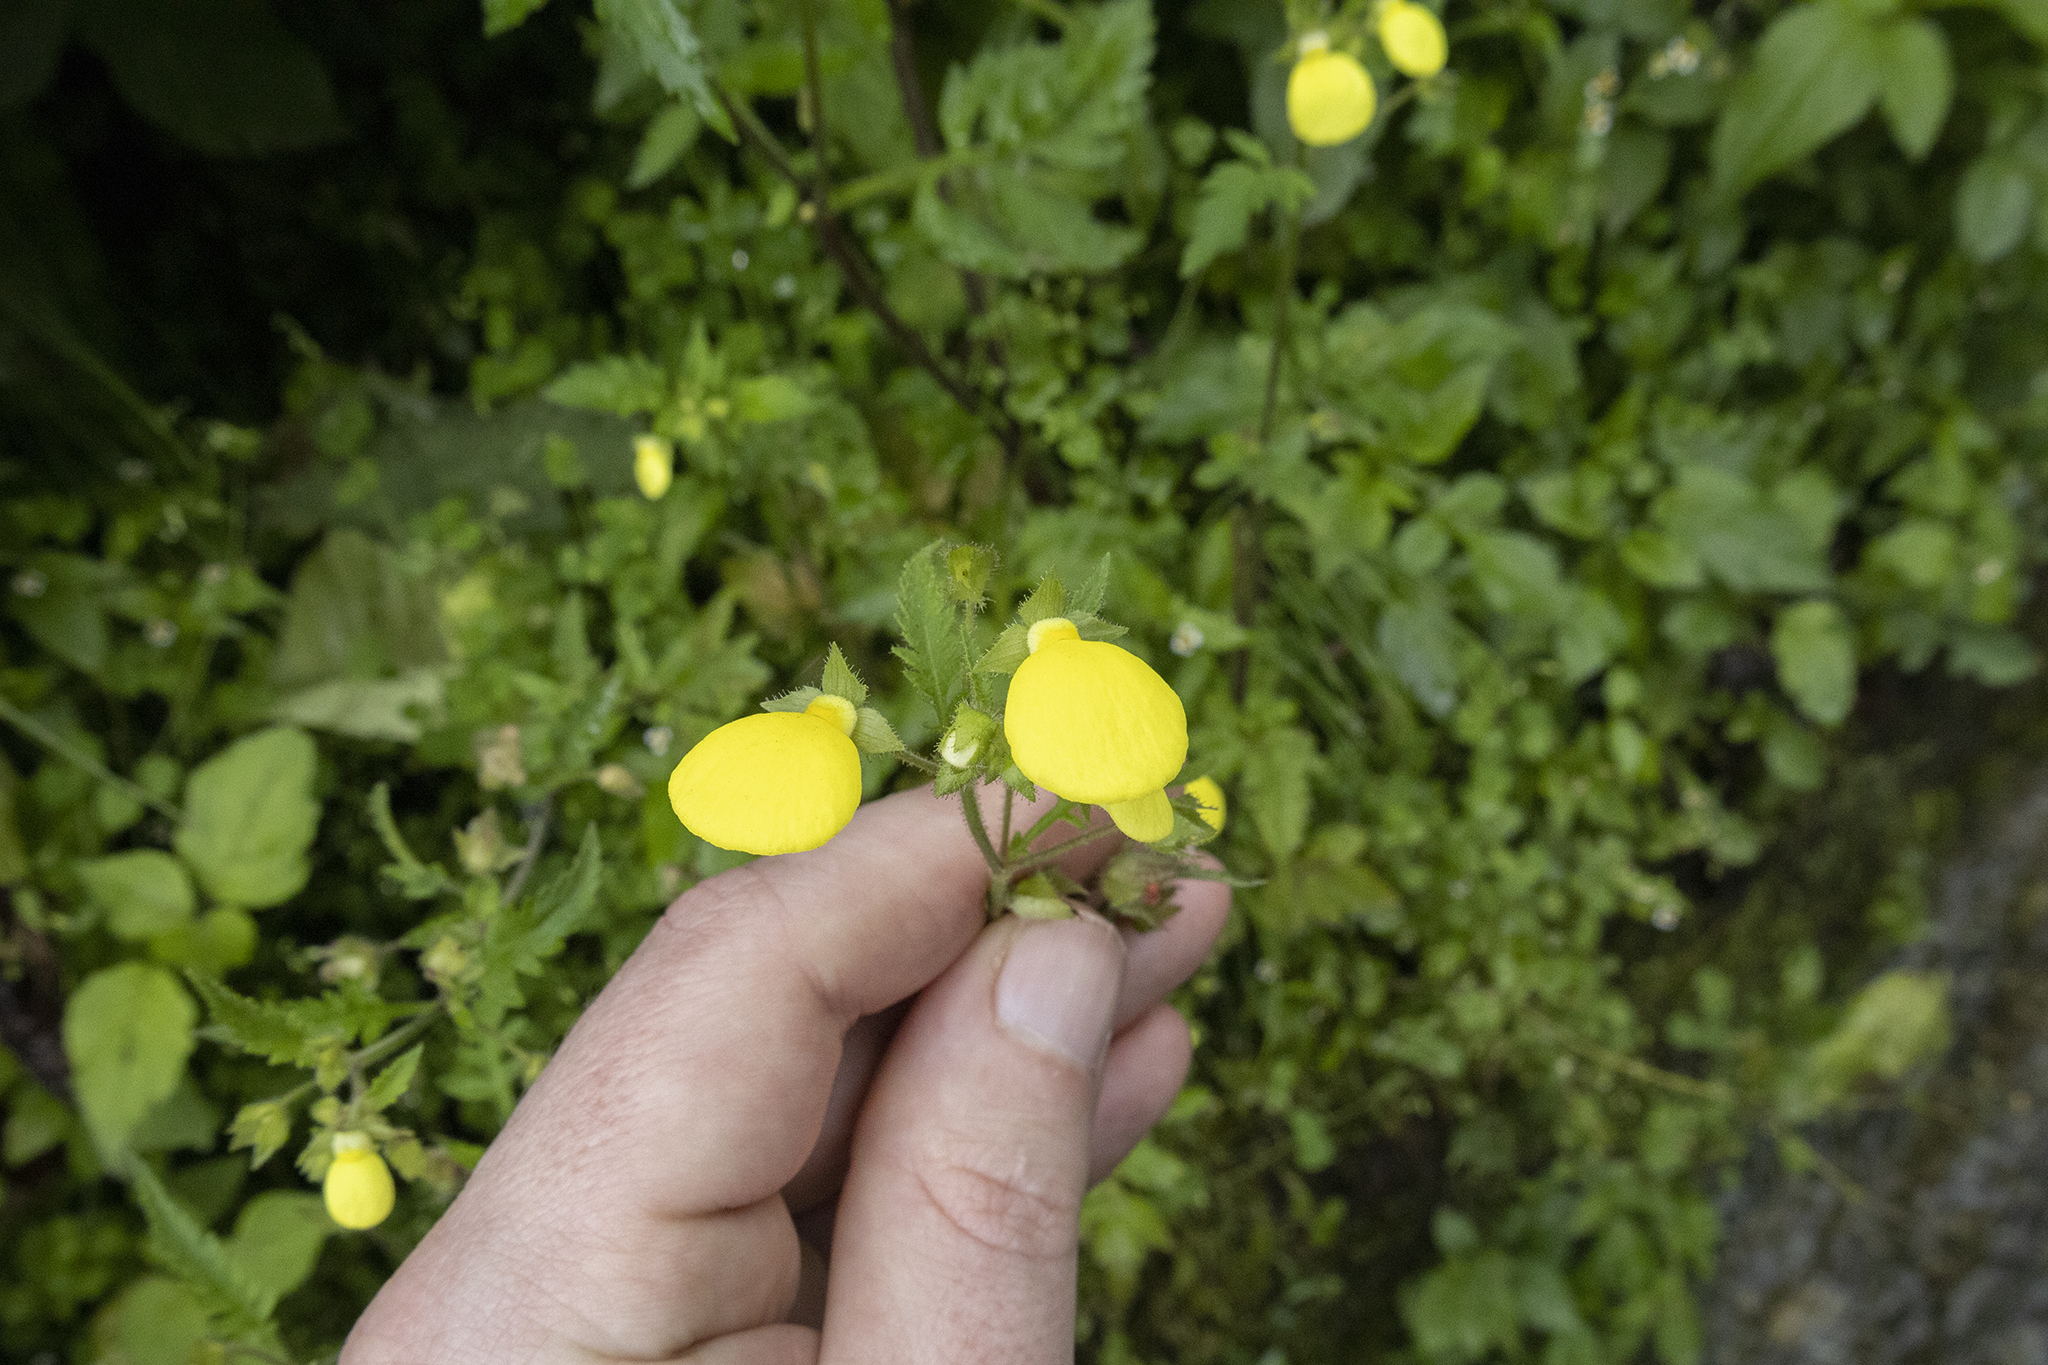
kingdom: Plantae
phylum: Tracheophyta
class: Magnoliopsida
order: Lamiales
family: Calceolariaceae
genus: Calceolaria
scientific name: Calceolaria tripartita
